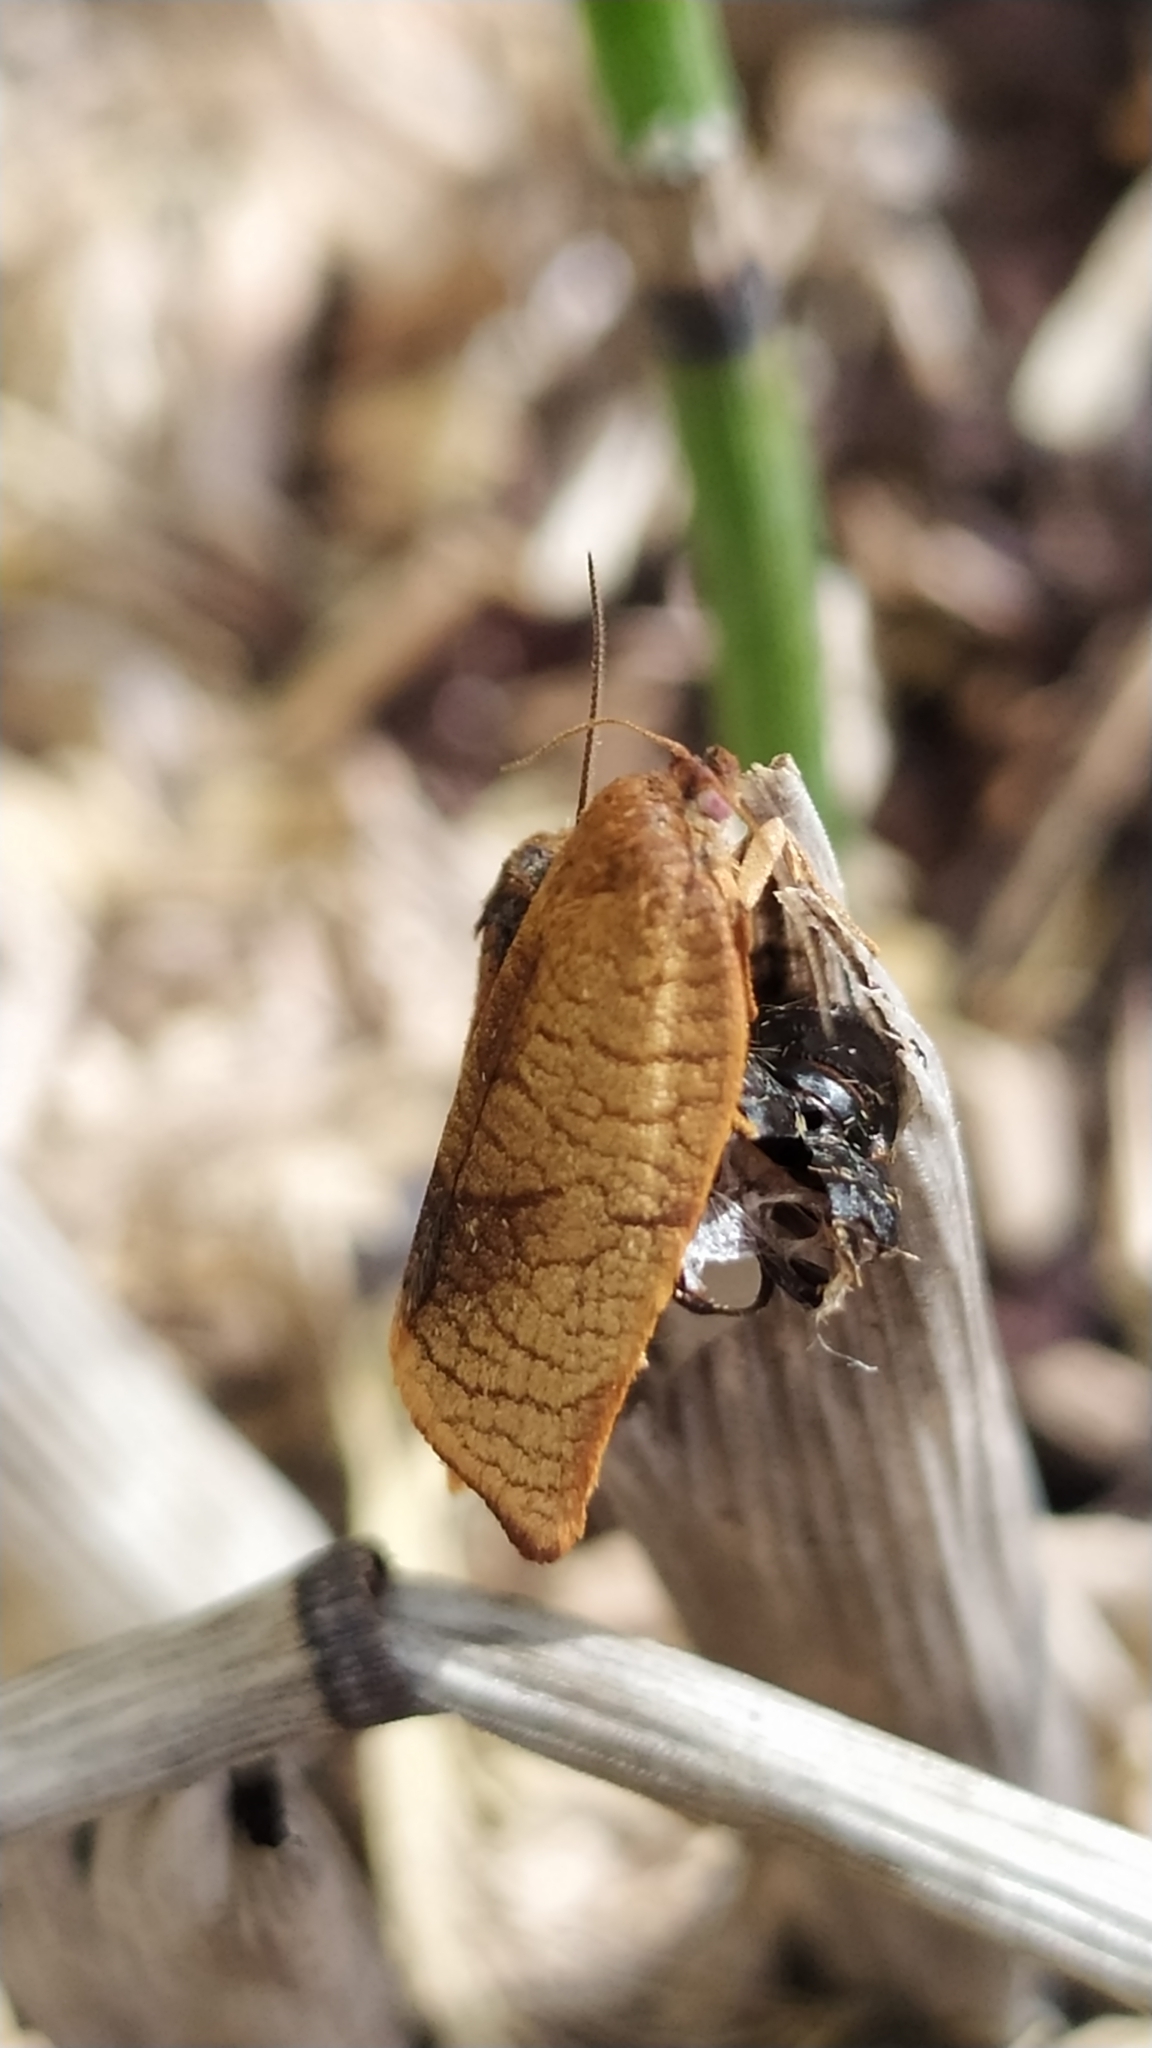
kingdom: Animalia
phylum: Arthropoda
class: Insecta
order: Lepidoptera
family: Tortricidae
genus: Cacoecimorpha
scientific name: Cacoecimorpha pronubana
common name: Carnation tortrix
